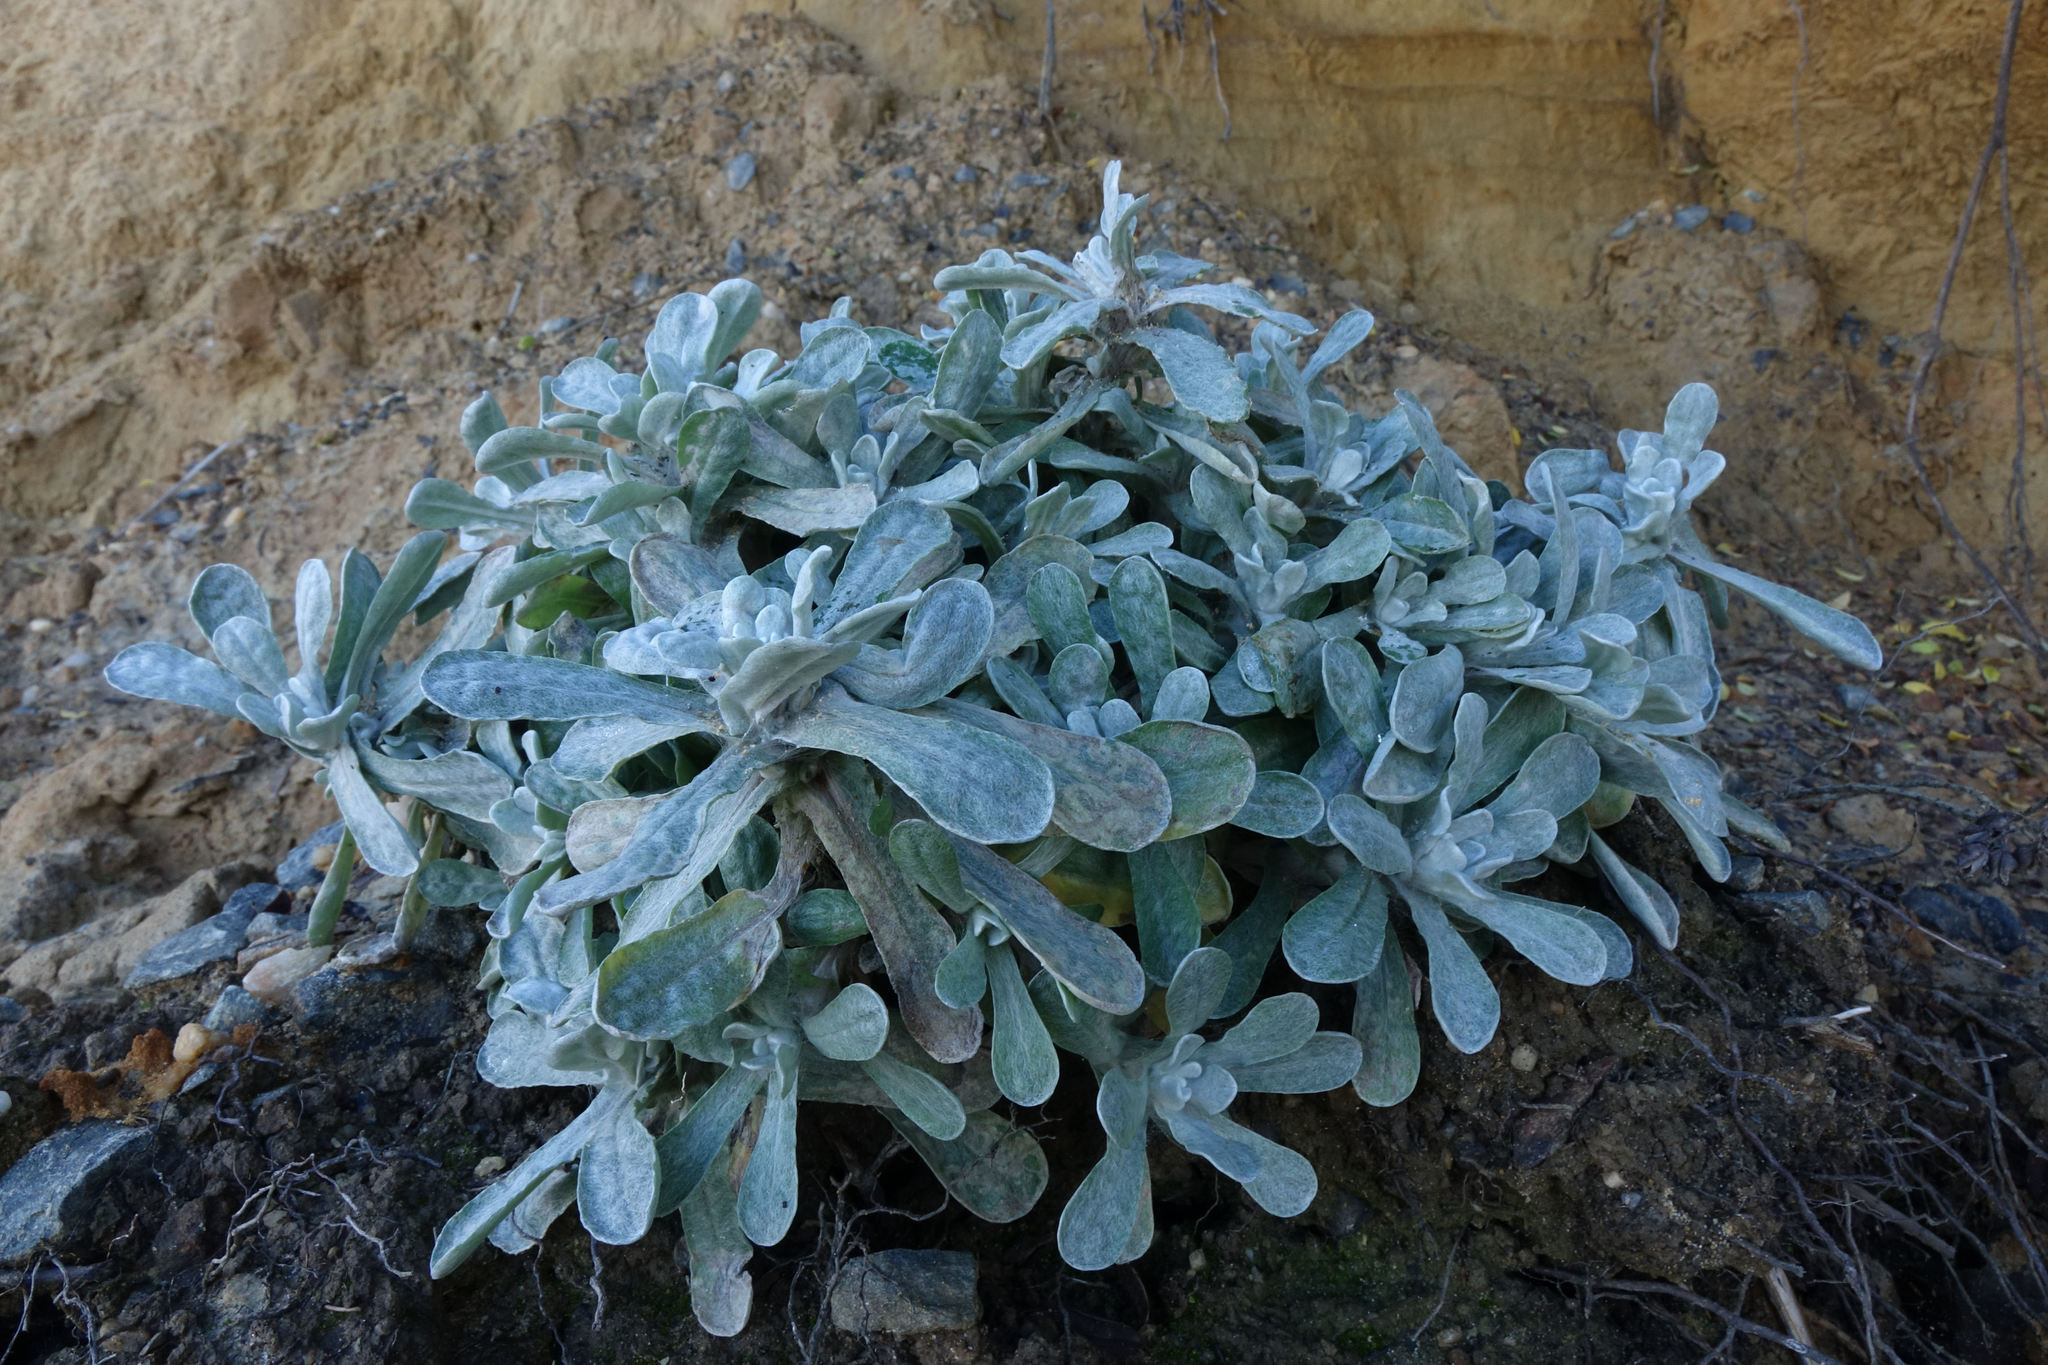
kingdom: Plantae
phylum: Tracheophyta
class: Magnoliopsida
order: Asterales
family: Asteraceae
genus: Helichrysum
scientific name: Helichrysum luteoalbum
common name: Daisy
